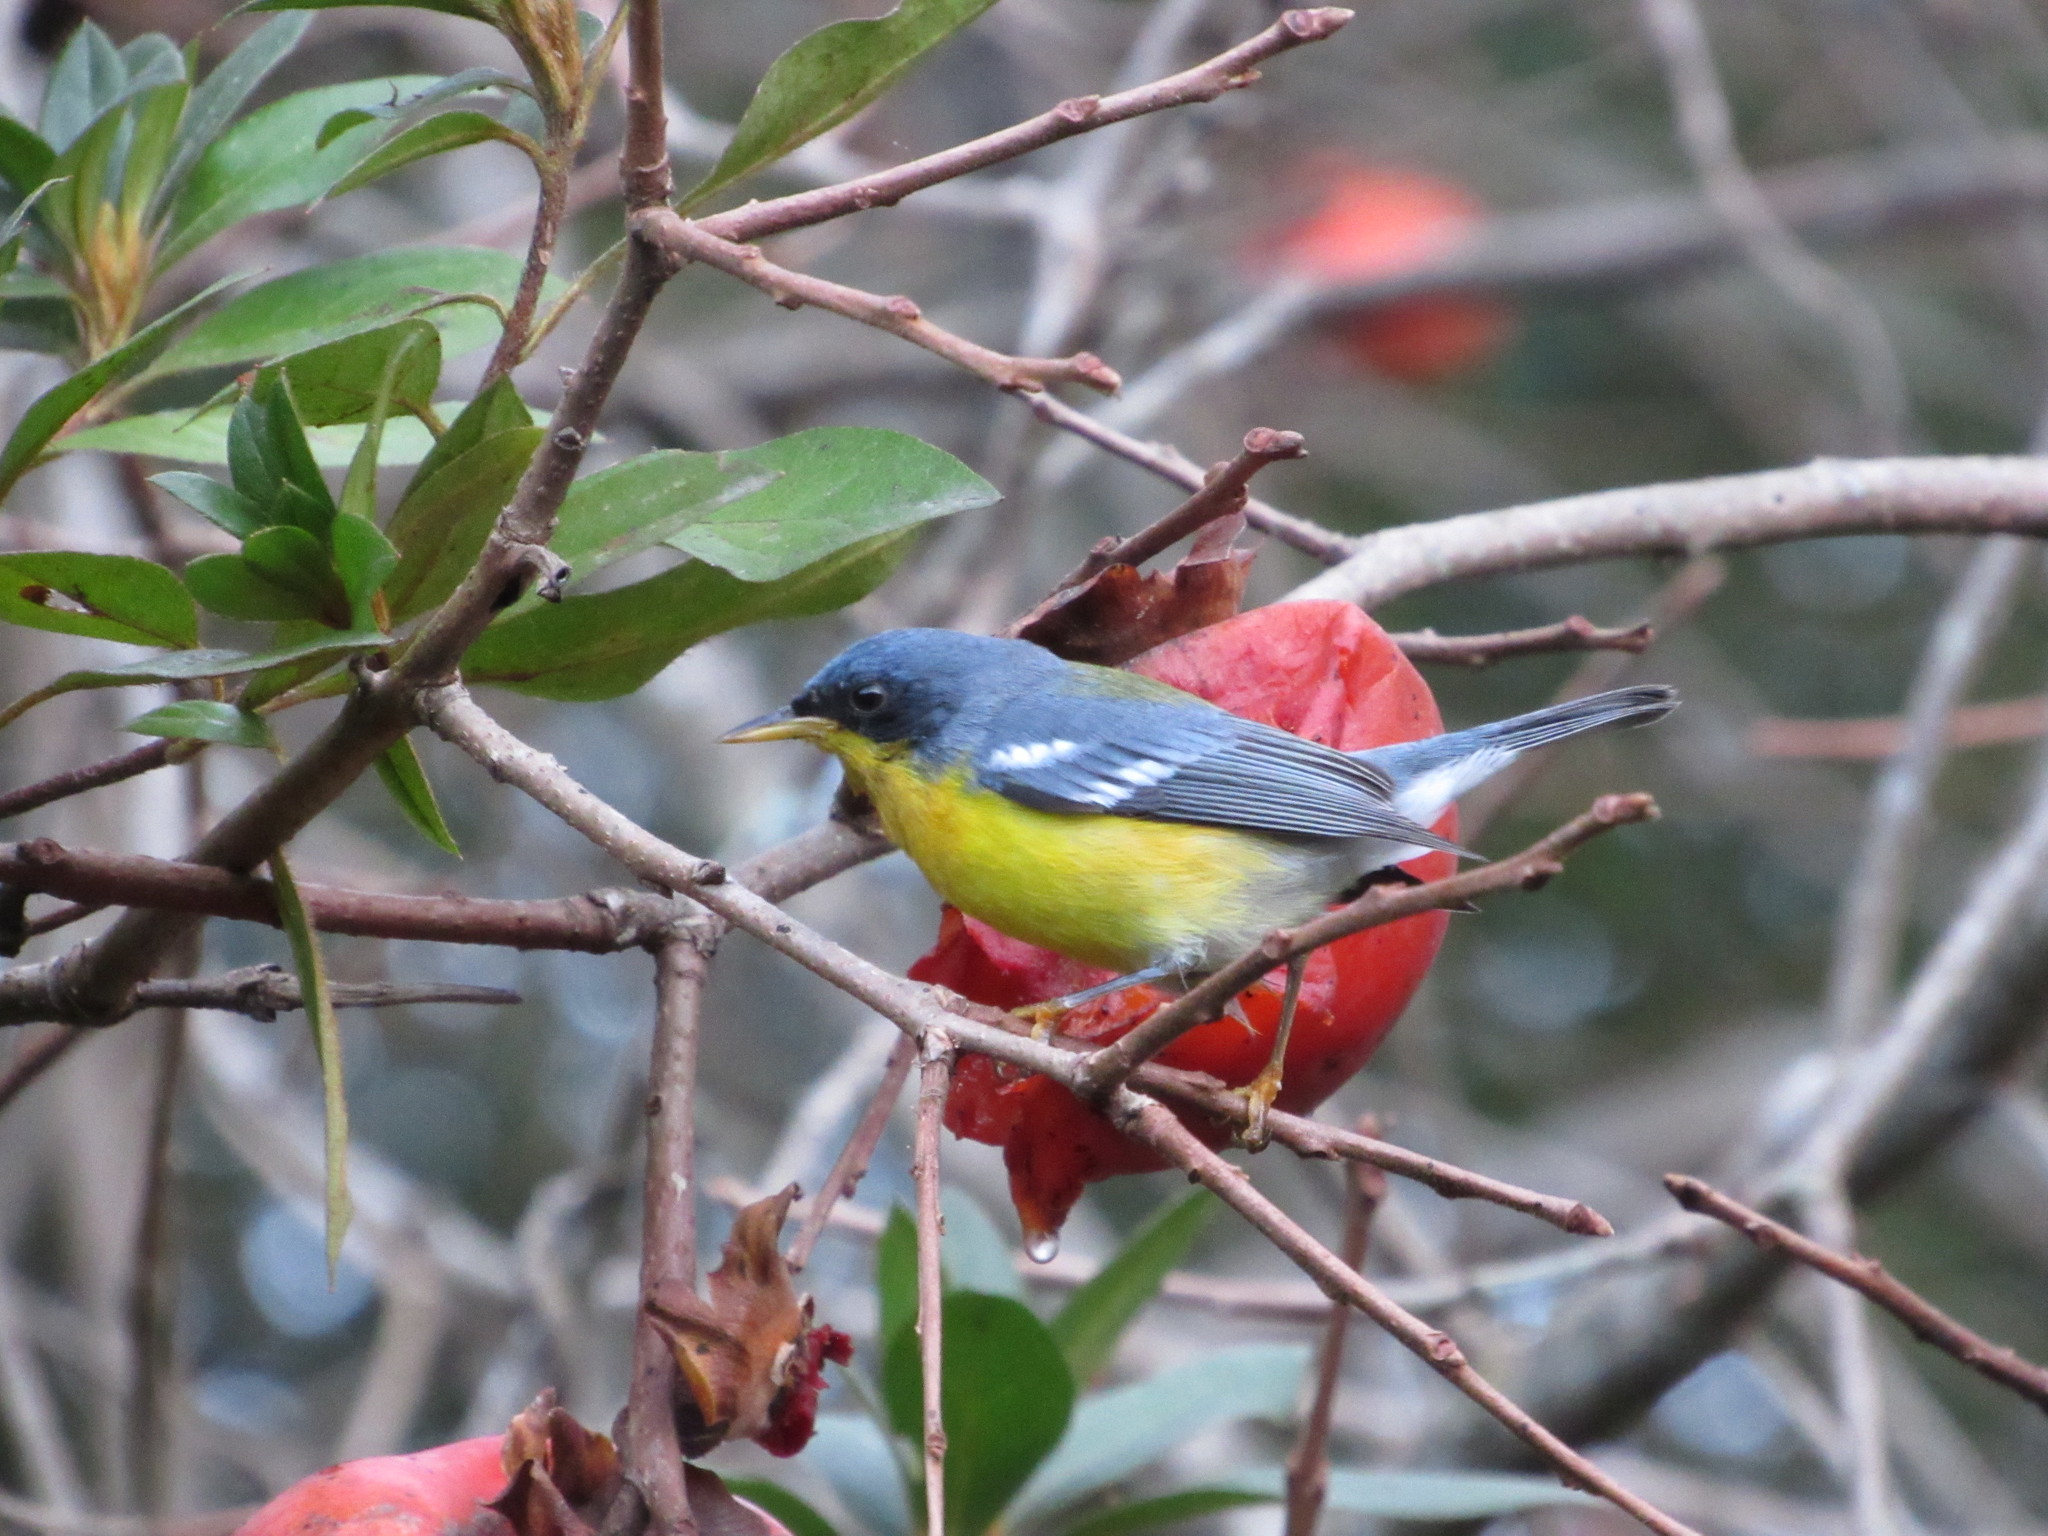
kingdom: Animalia
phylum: Chordata
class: Aves
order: Passeriformes
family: Parulidae
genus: Setophaga
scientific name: Setophaga pitiayumi
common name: Tropical parula
